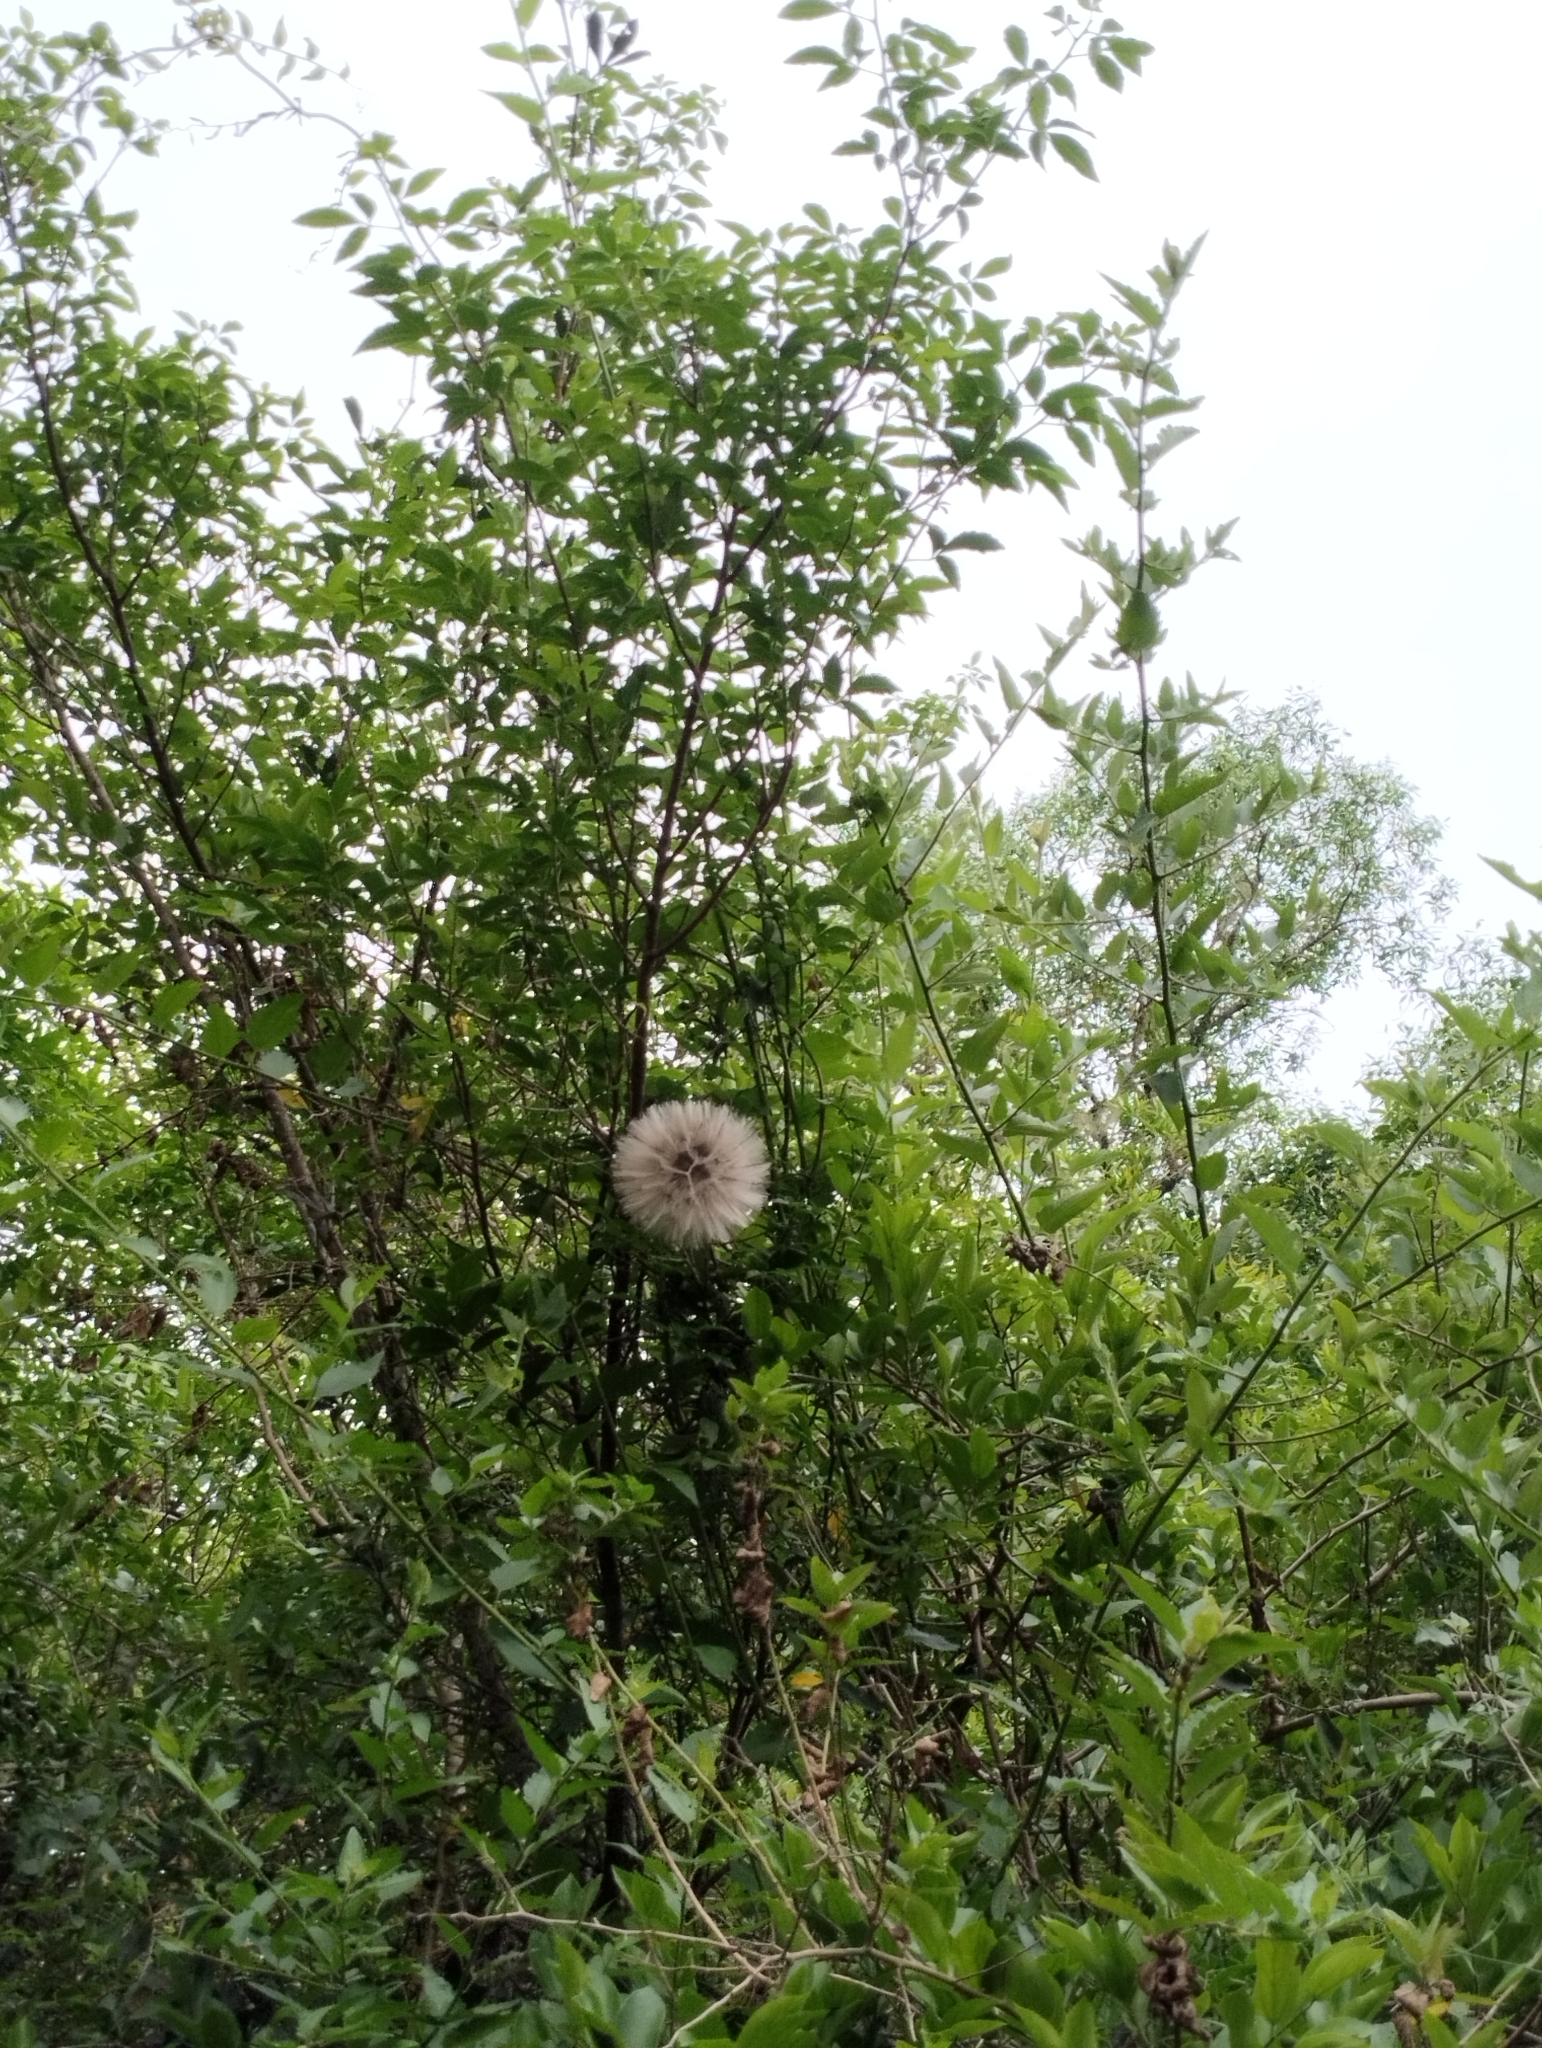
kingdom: Plantae
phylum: Tracheophyta
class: Magnoliopsida
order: Asterales
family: Asteraceae
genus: Mutisia
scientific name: Mutisia coccinea
